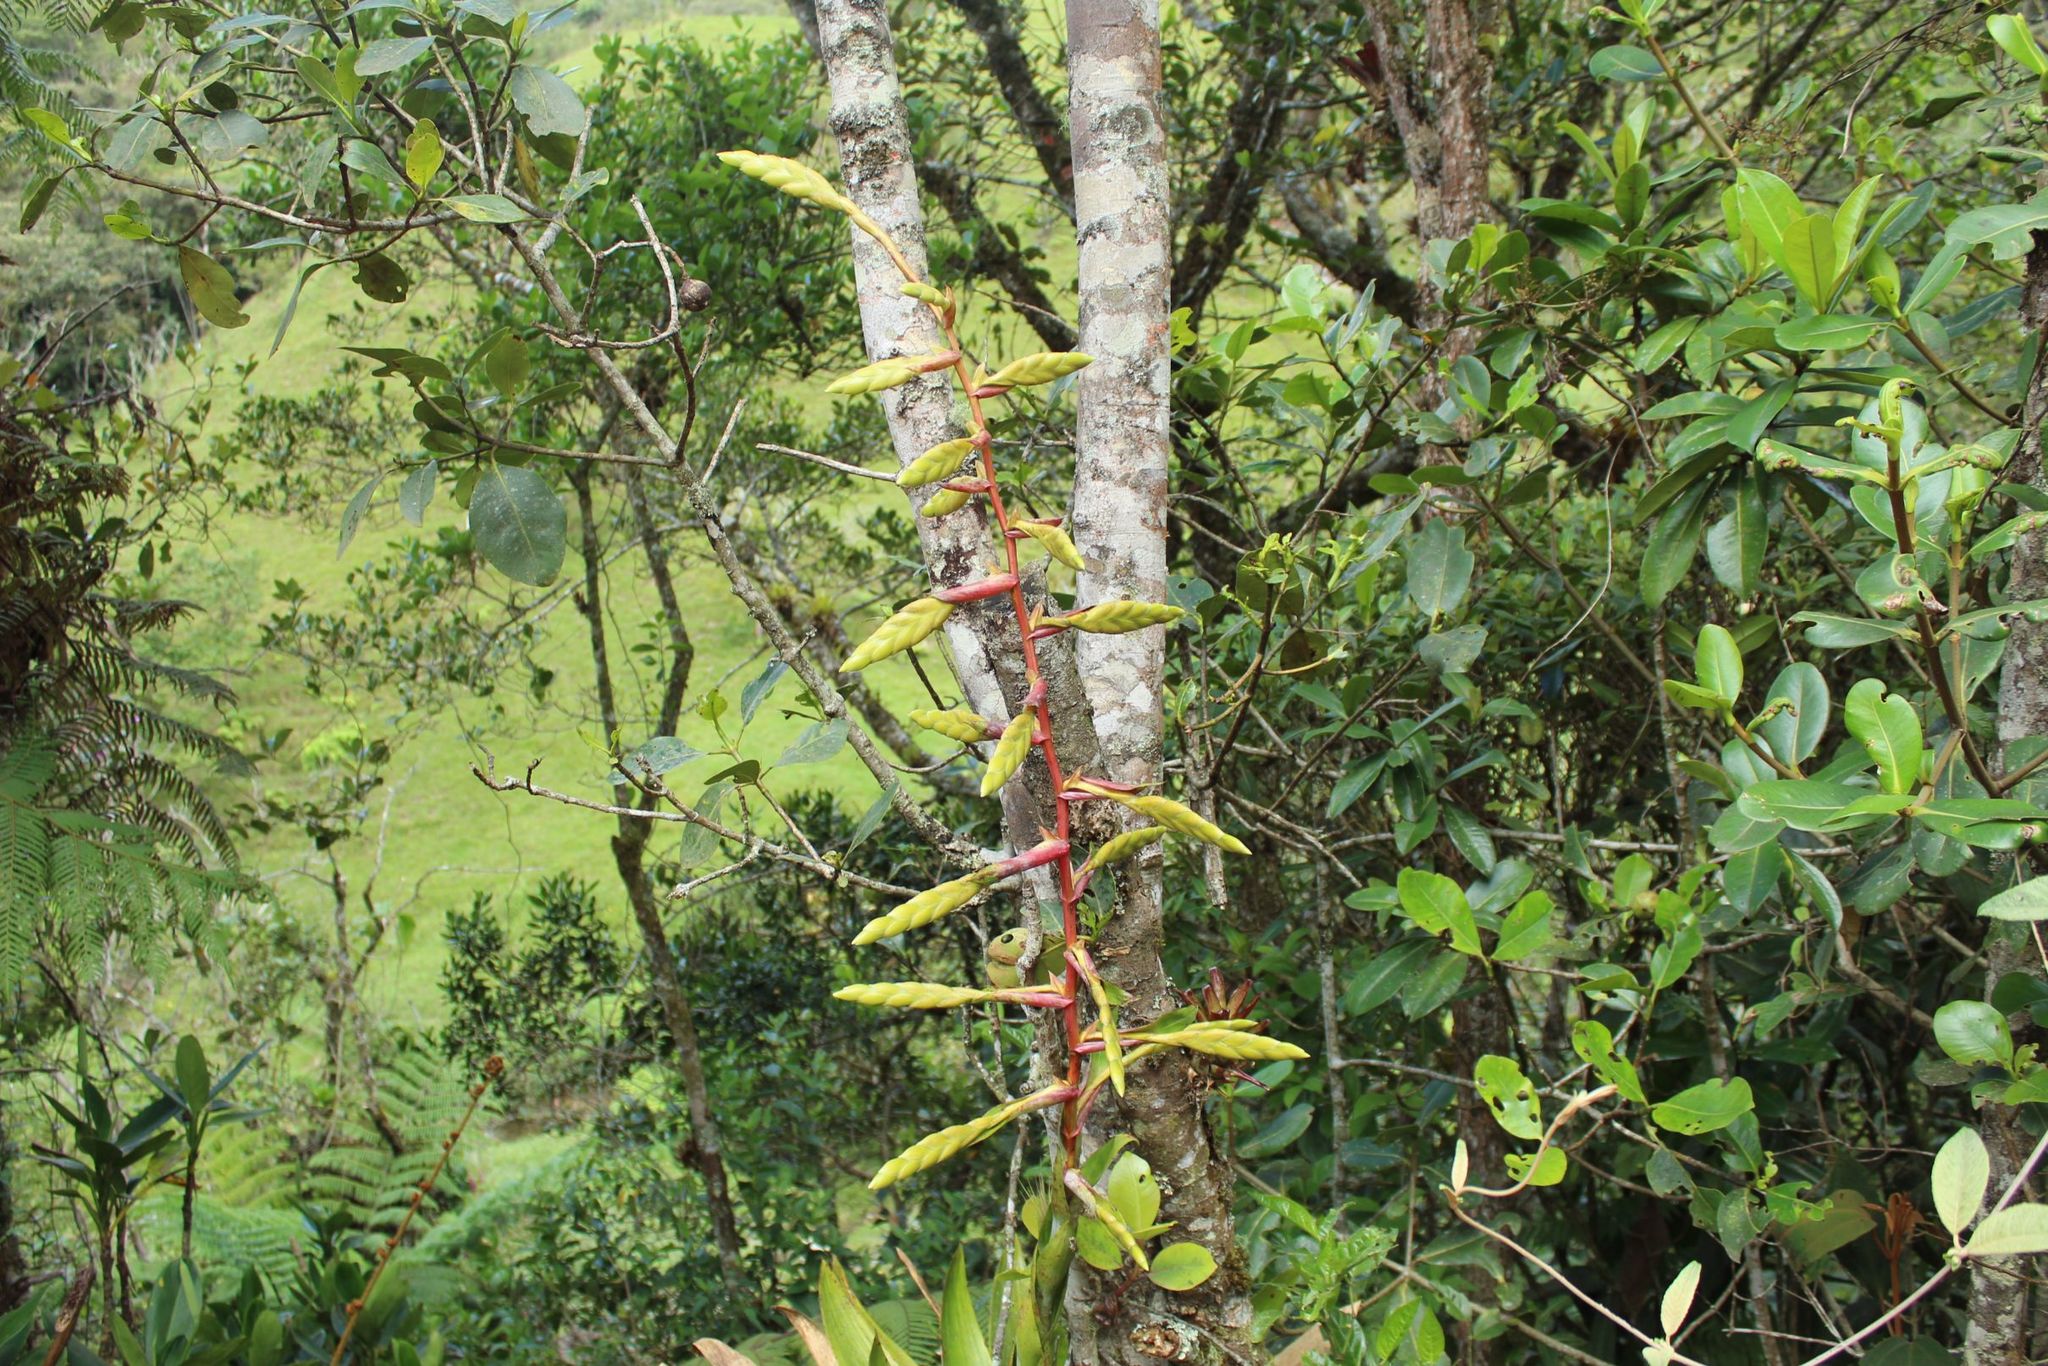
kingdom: Plantae
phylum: Tracheophyta
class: Liliopsida
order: Poales
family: Bromeliaceae
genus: Tillandsia
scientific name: Tillandsia fendleri
